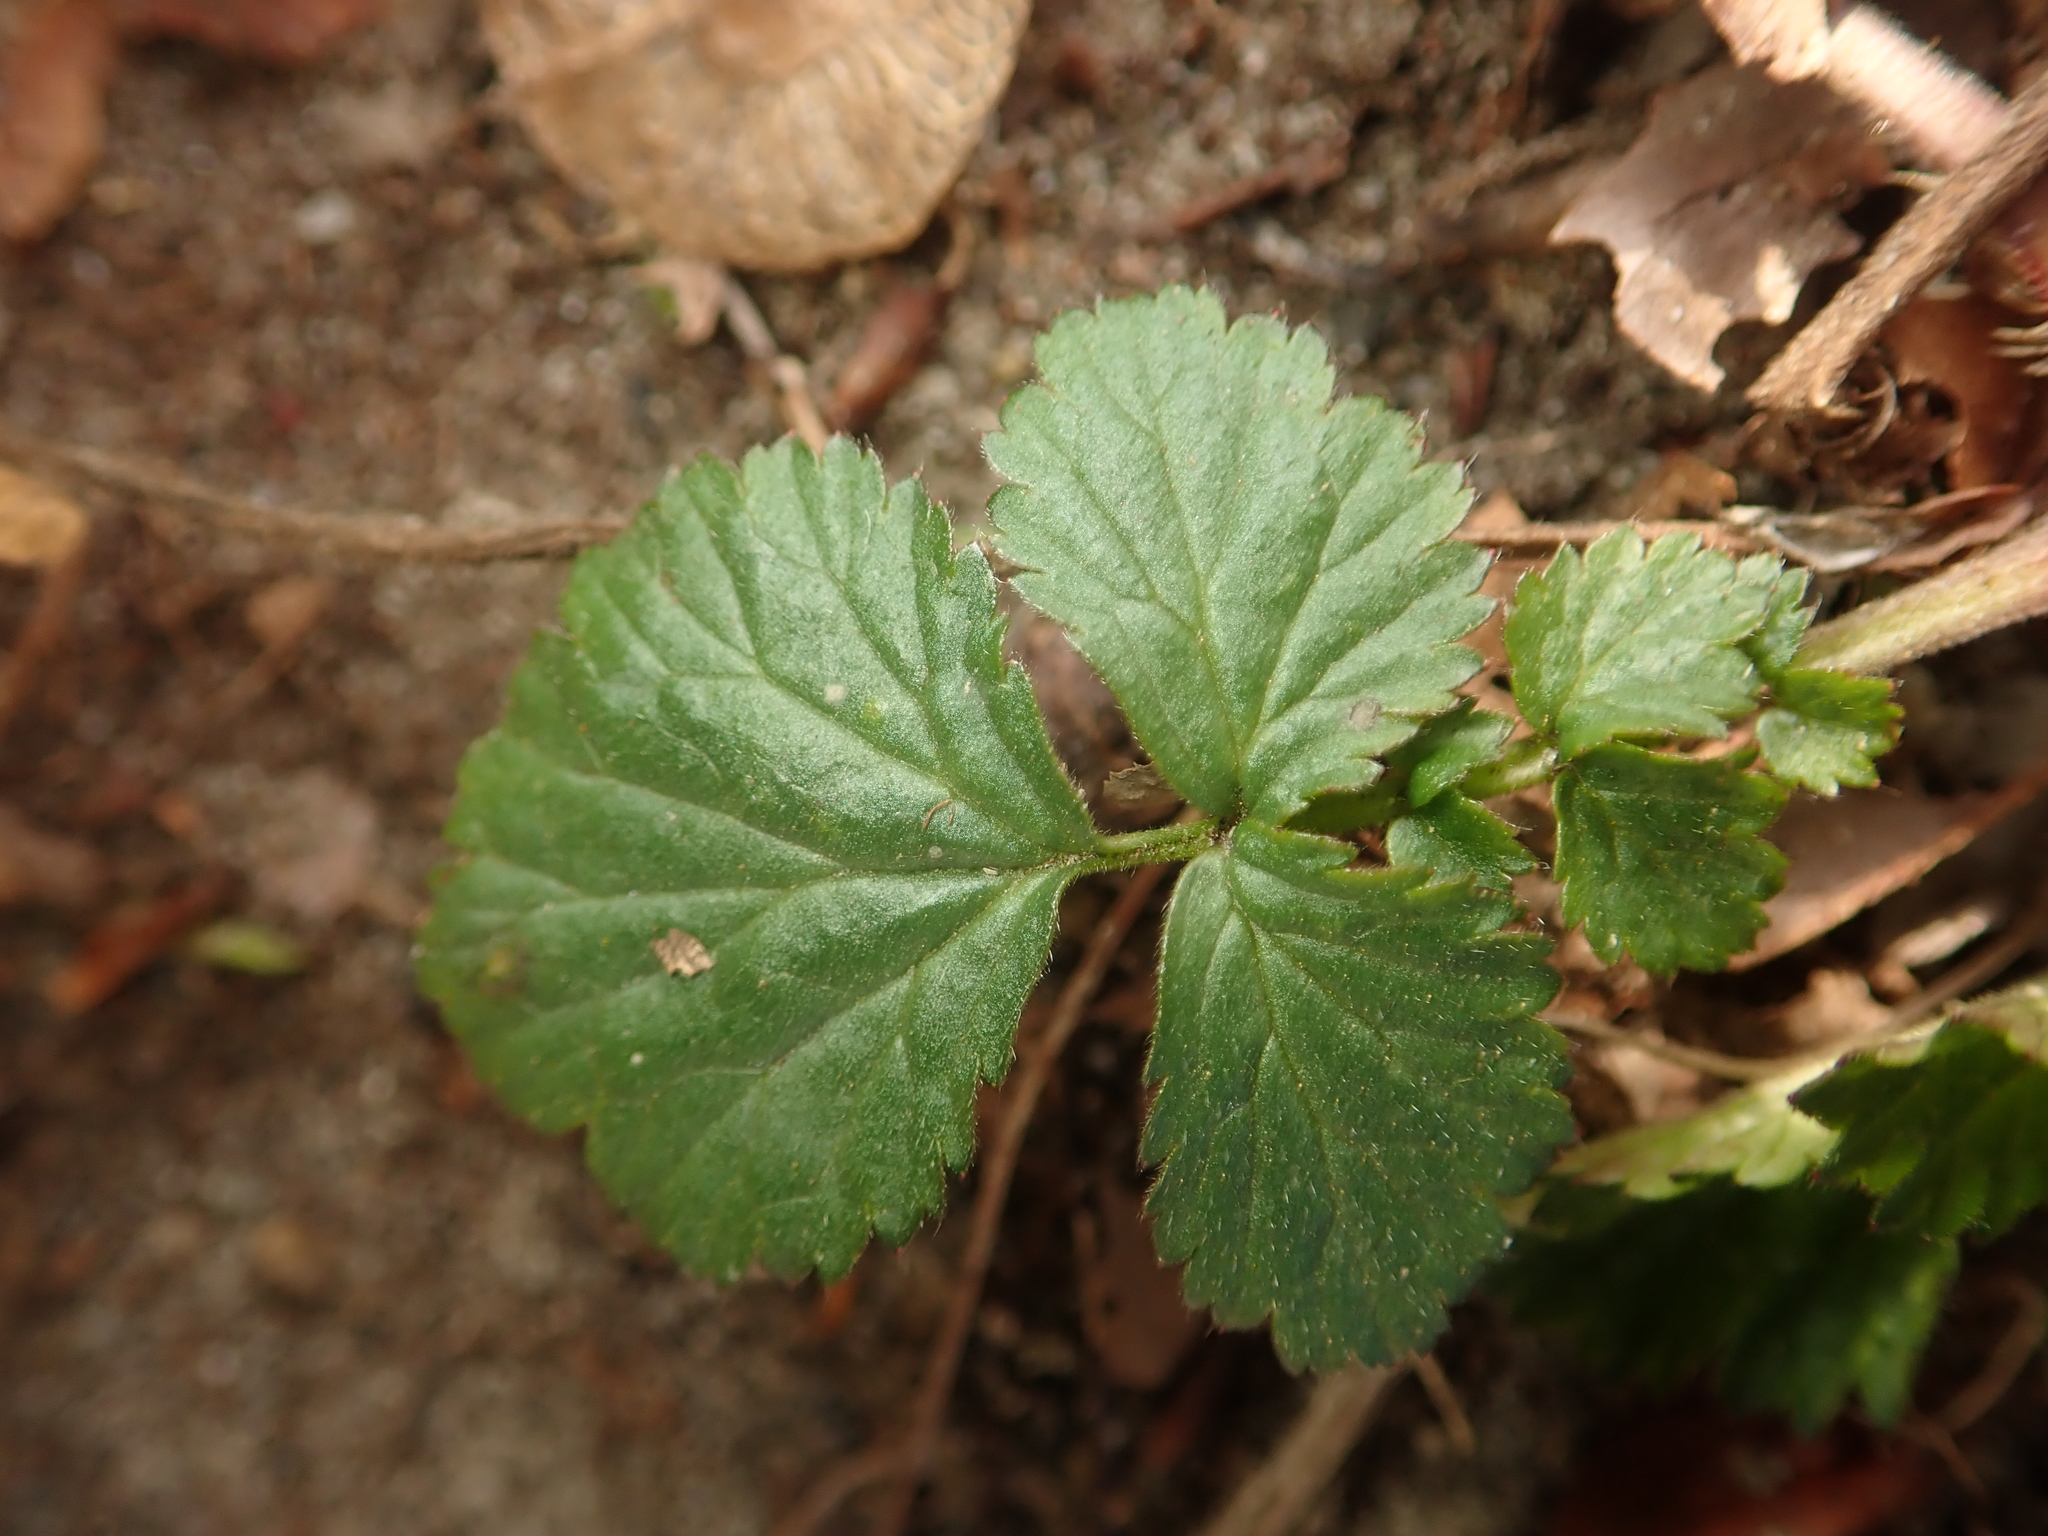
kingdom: Plantae
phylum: Tracheophyta
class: Magnoliopsida
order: Rosales
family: Rosaceae
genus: Geum
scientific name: Geum urbanum
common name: Wood avens
